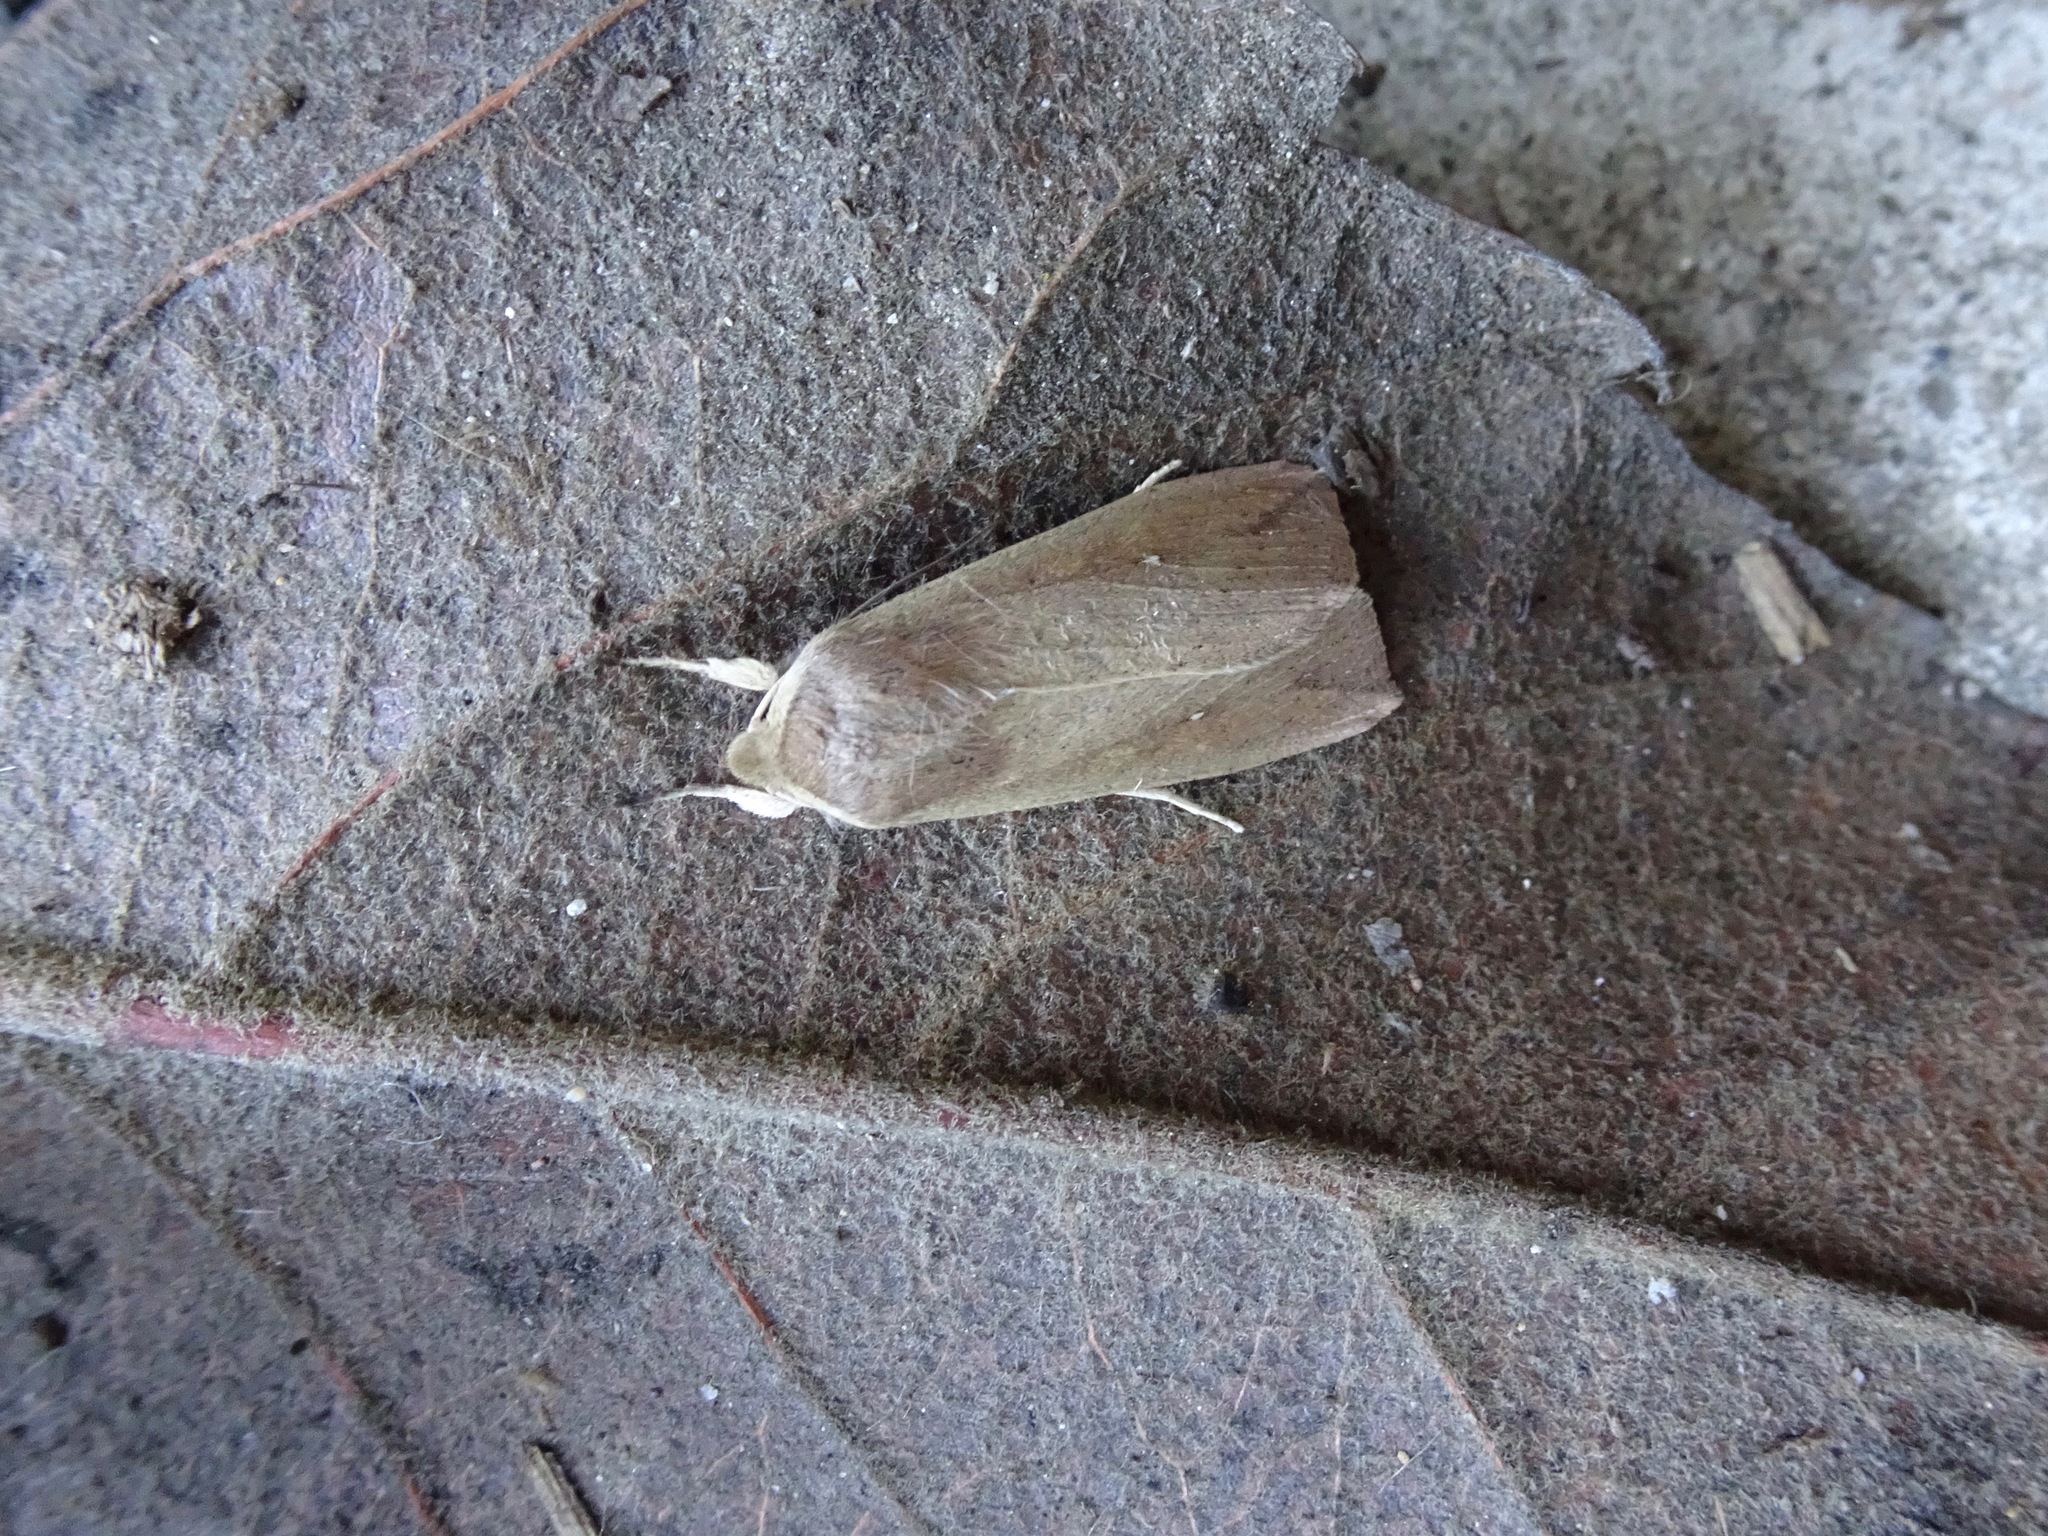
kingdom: Animalia
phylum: Arthropoda
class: Insecta
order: Lepidoptera
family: Noctuidae
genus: Mythimna
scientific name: Mythimna unipuncta
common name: White-speck
